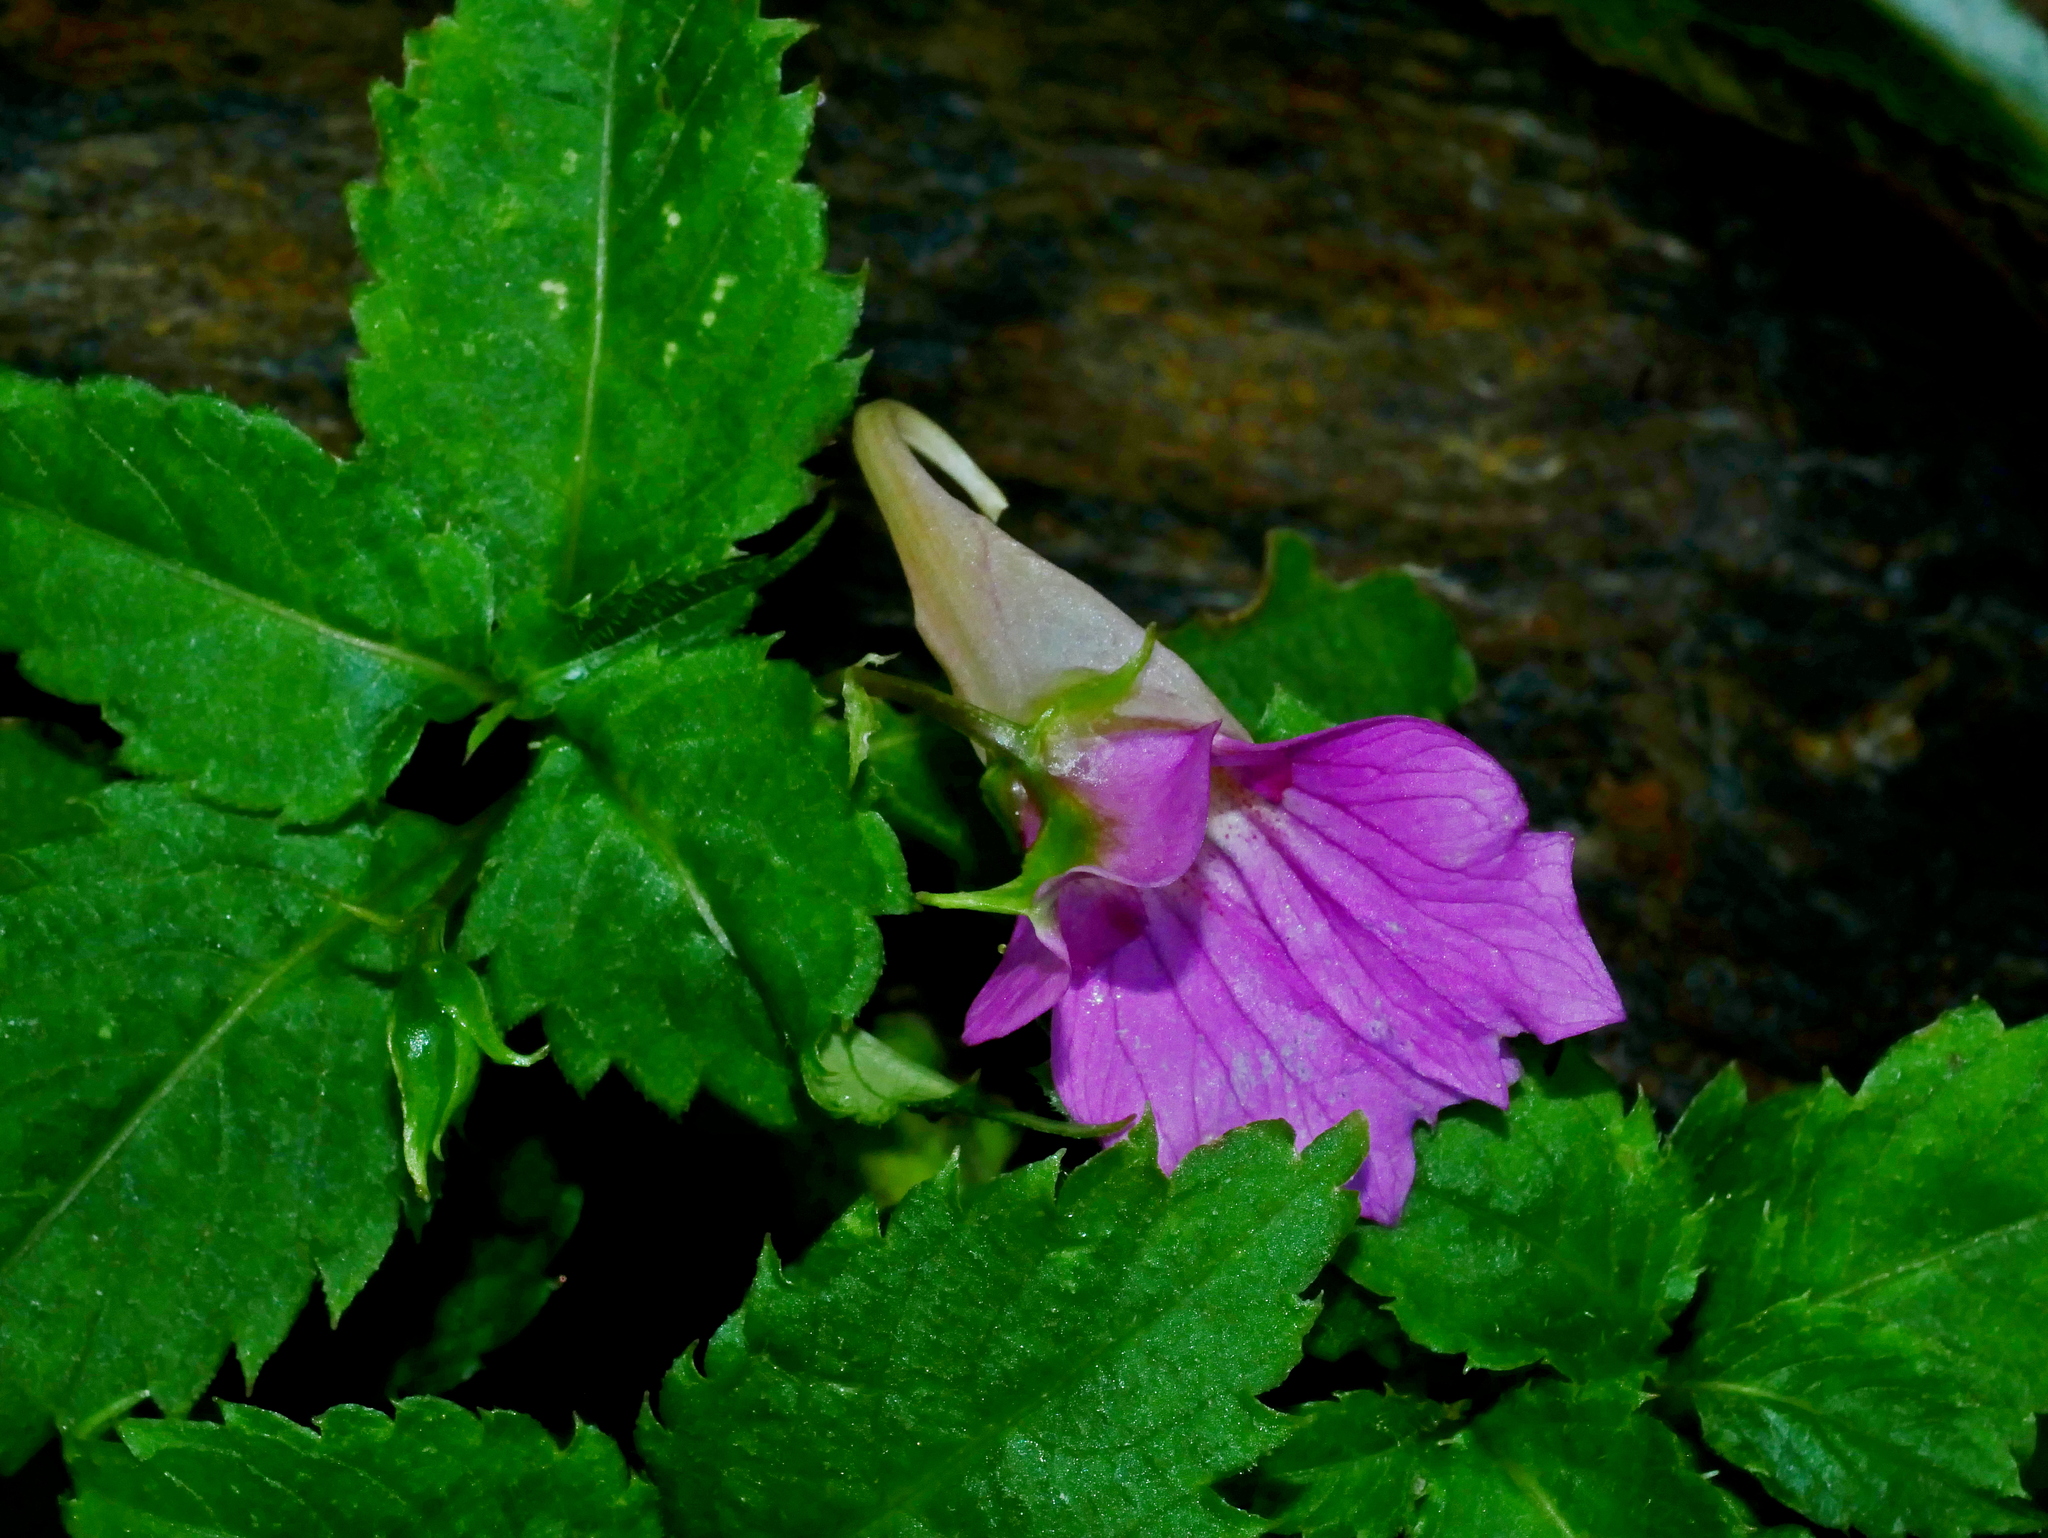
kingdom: Plantae
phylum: Tracheophyta
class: Magnoliopsida
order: Ericales
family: Balsaminaceae
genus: Impatiens
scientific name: Impatiens uniflora
